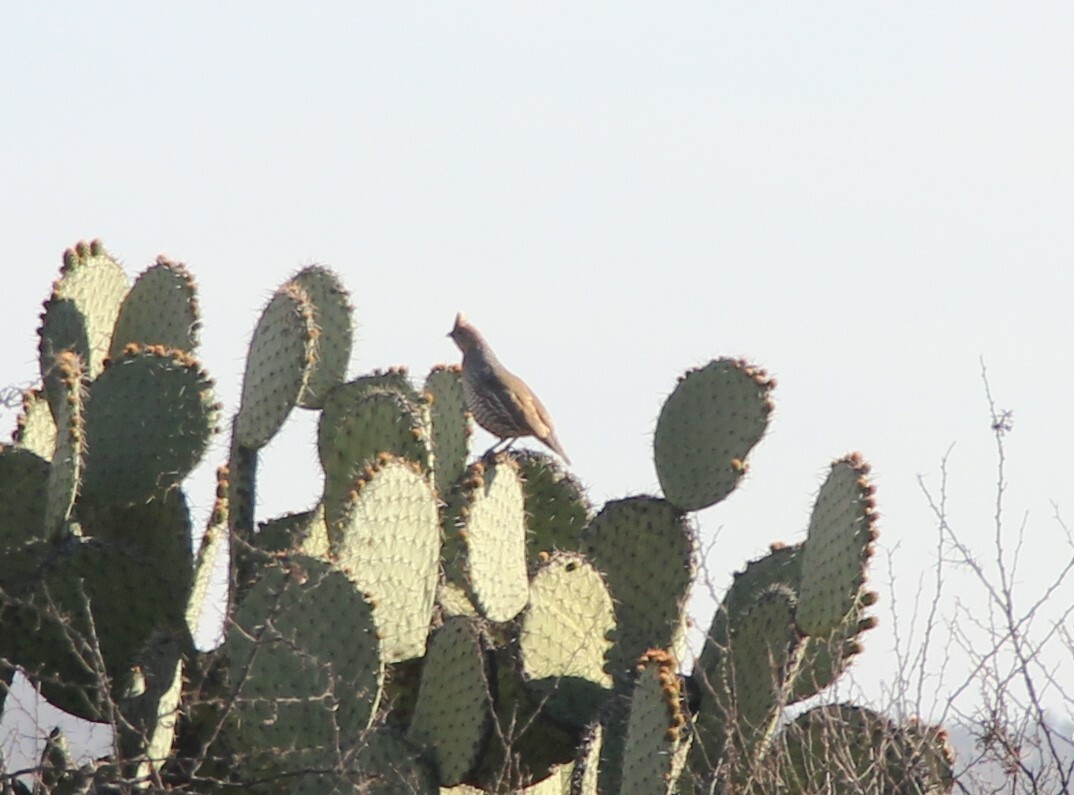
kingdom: Animalia
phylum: Chordata
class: Aves
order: Galliformes
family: Odontophoridae
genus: Callipepla
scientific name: Callipepla squamata
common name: Scaled quail
